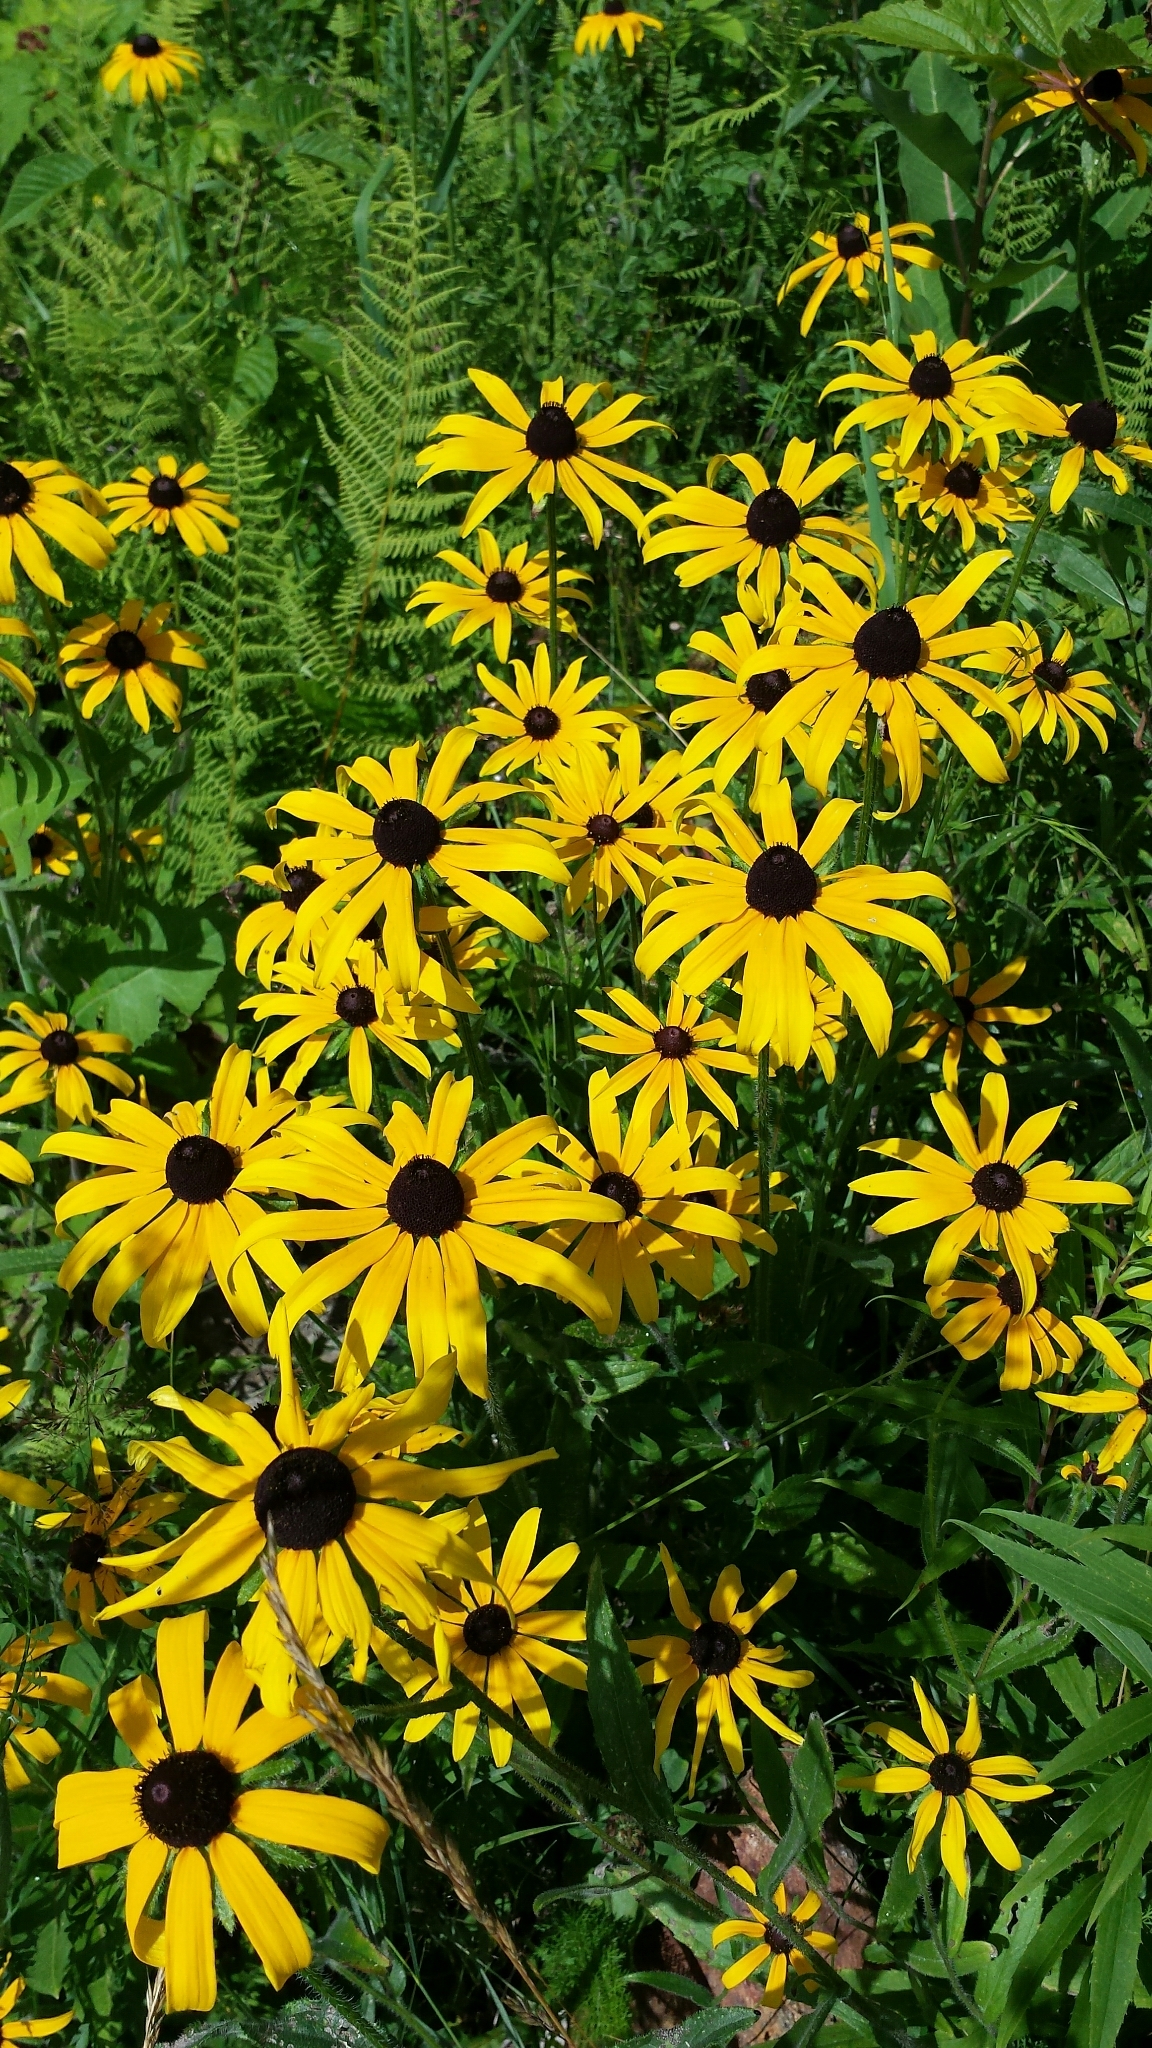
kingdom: Plantae
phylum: Tracheophyta
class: Magnoliopsida
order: Asterales
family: Asteraceae
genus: Rudbeckia
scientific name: Rudbeckia hirta
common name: Black-eyed-susan
